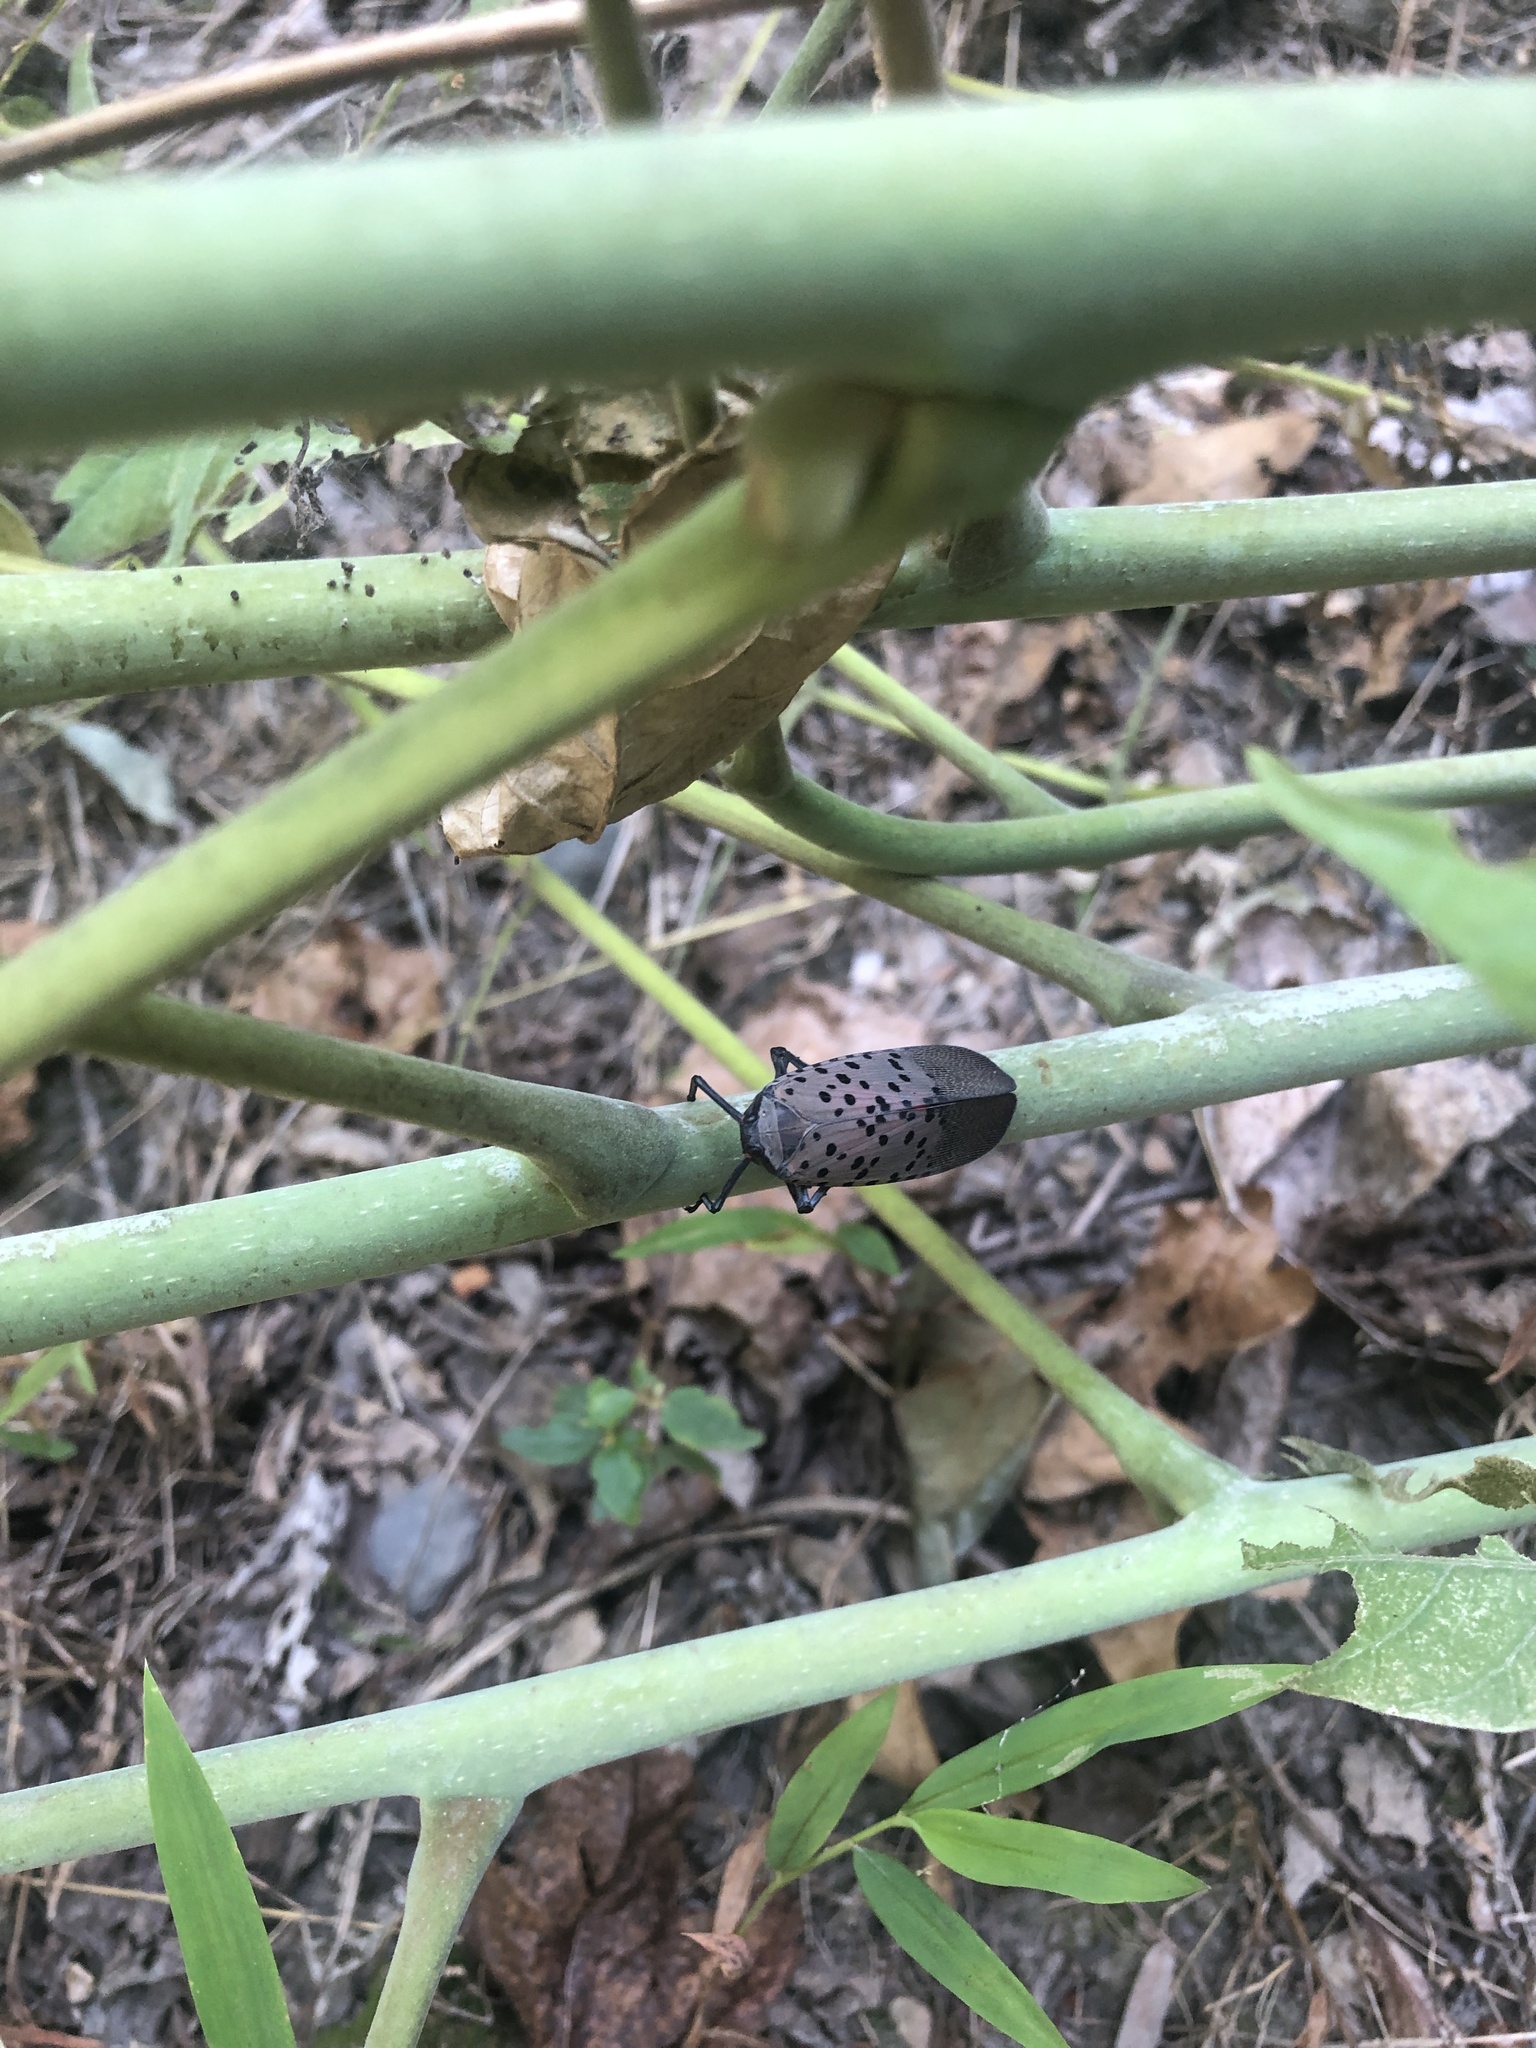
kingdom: Animalia
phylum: Arthropoda
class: Insecta
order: Hemiptera
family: Fulgoridae
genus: Lycorma
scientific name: Lycorma delicatula
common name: Spotted lanternfly
